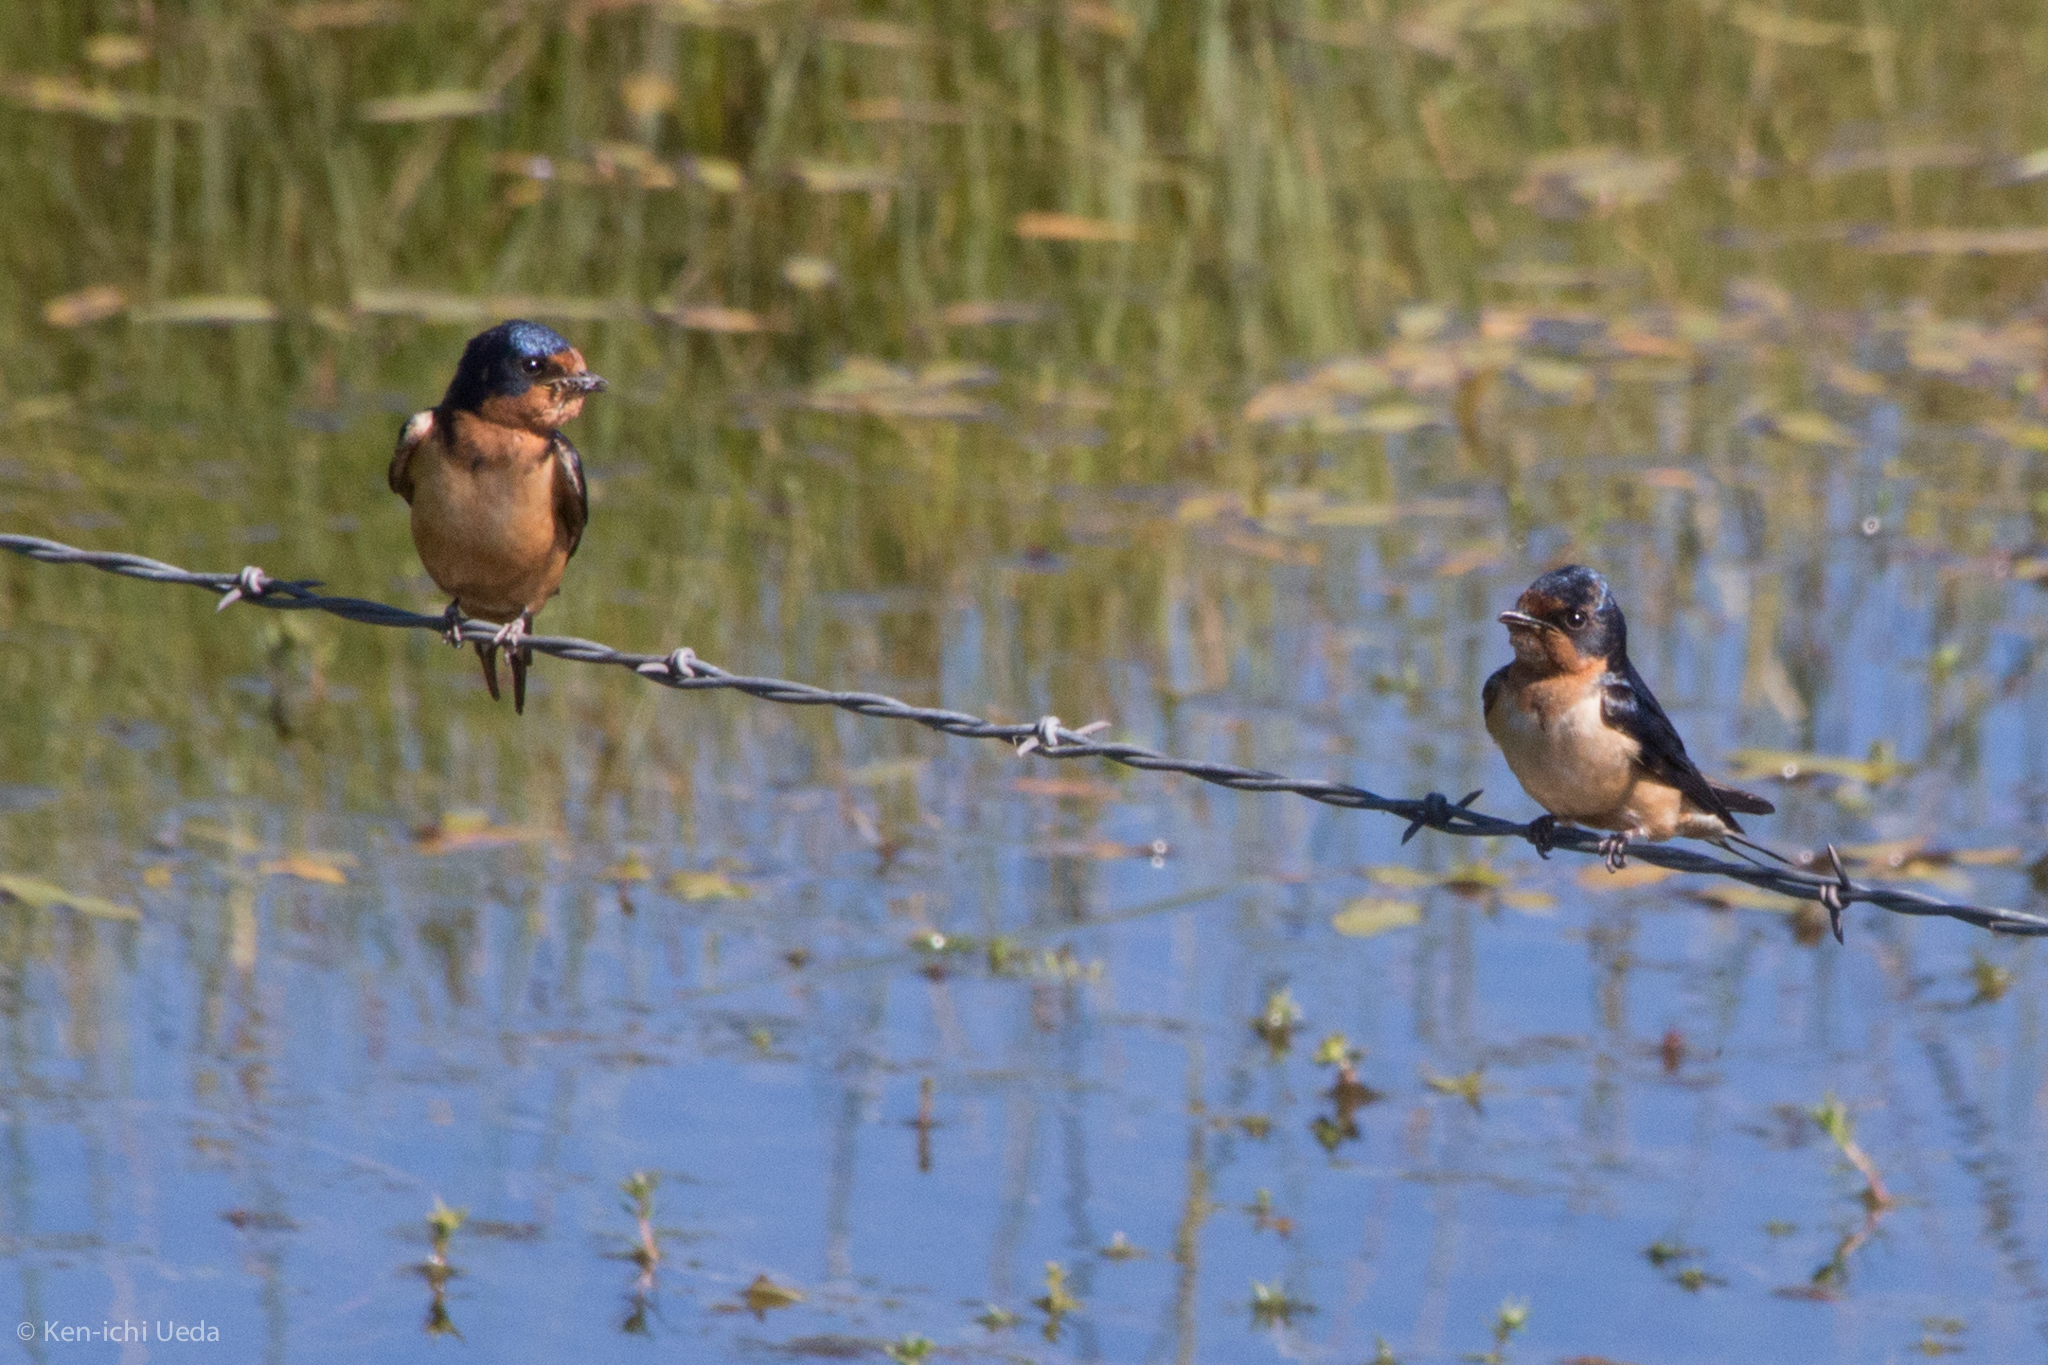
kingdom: Animalia
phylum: Chordata
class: Aves
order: Passeriformes
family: Hirundinidae
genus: Hirundo
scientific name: Hirundo rustica
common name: Barn swallow
